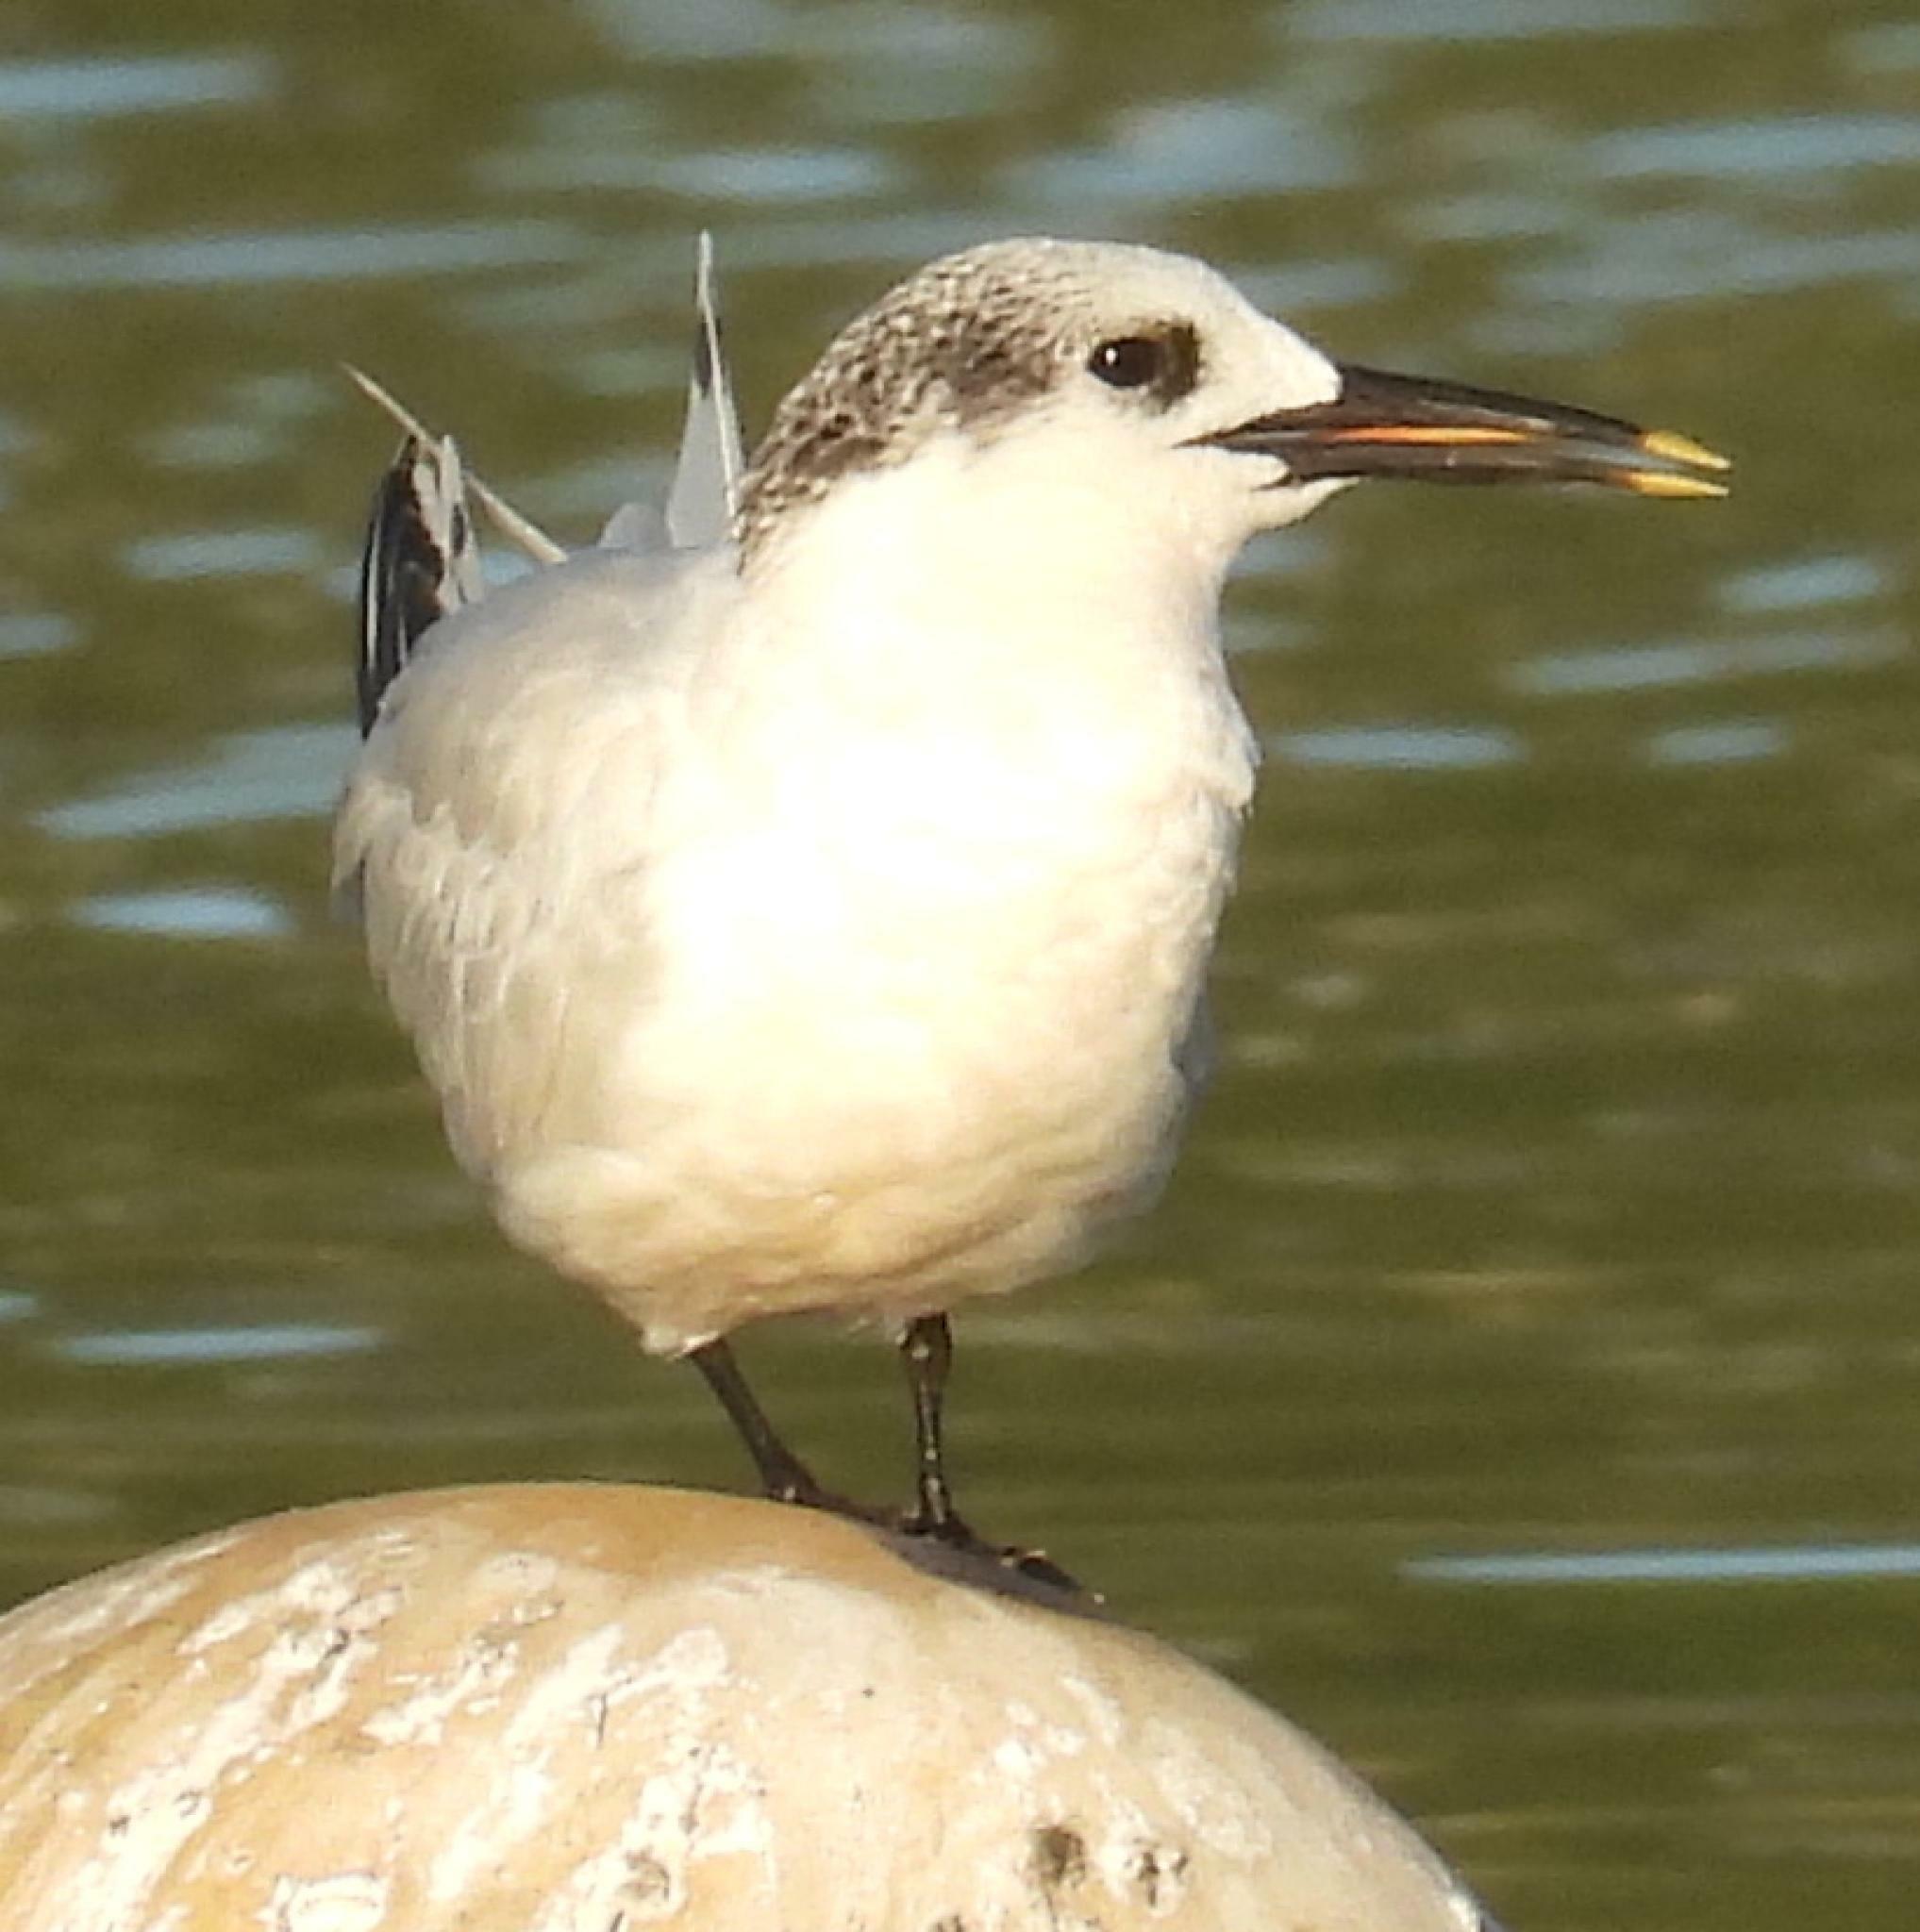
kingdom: Animalia
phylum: Chordata
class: Aves
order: Charadriiformes
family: Laridae
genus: Thalasseus
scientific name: Thalasseus sandvicensis
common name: Sandwich tern
